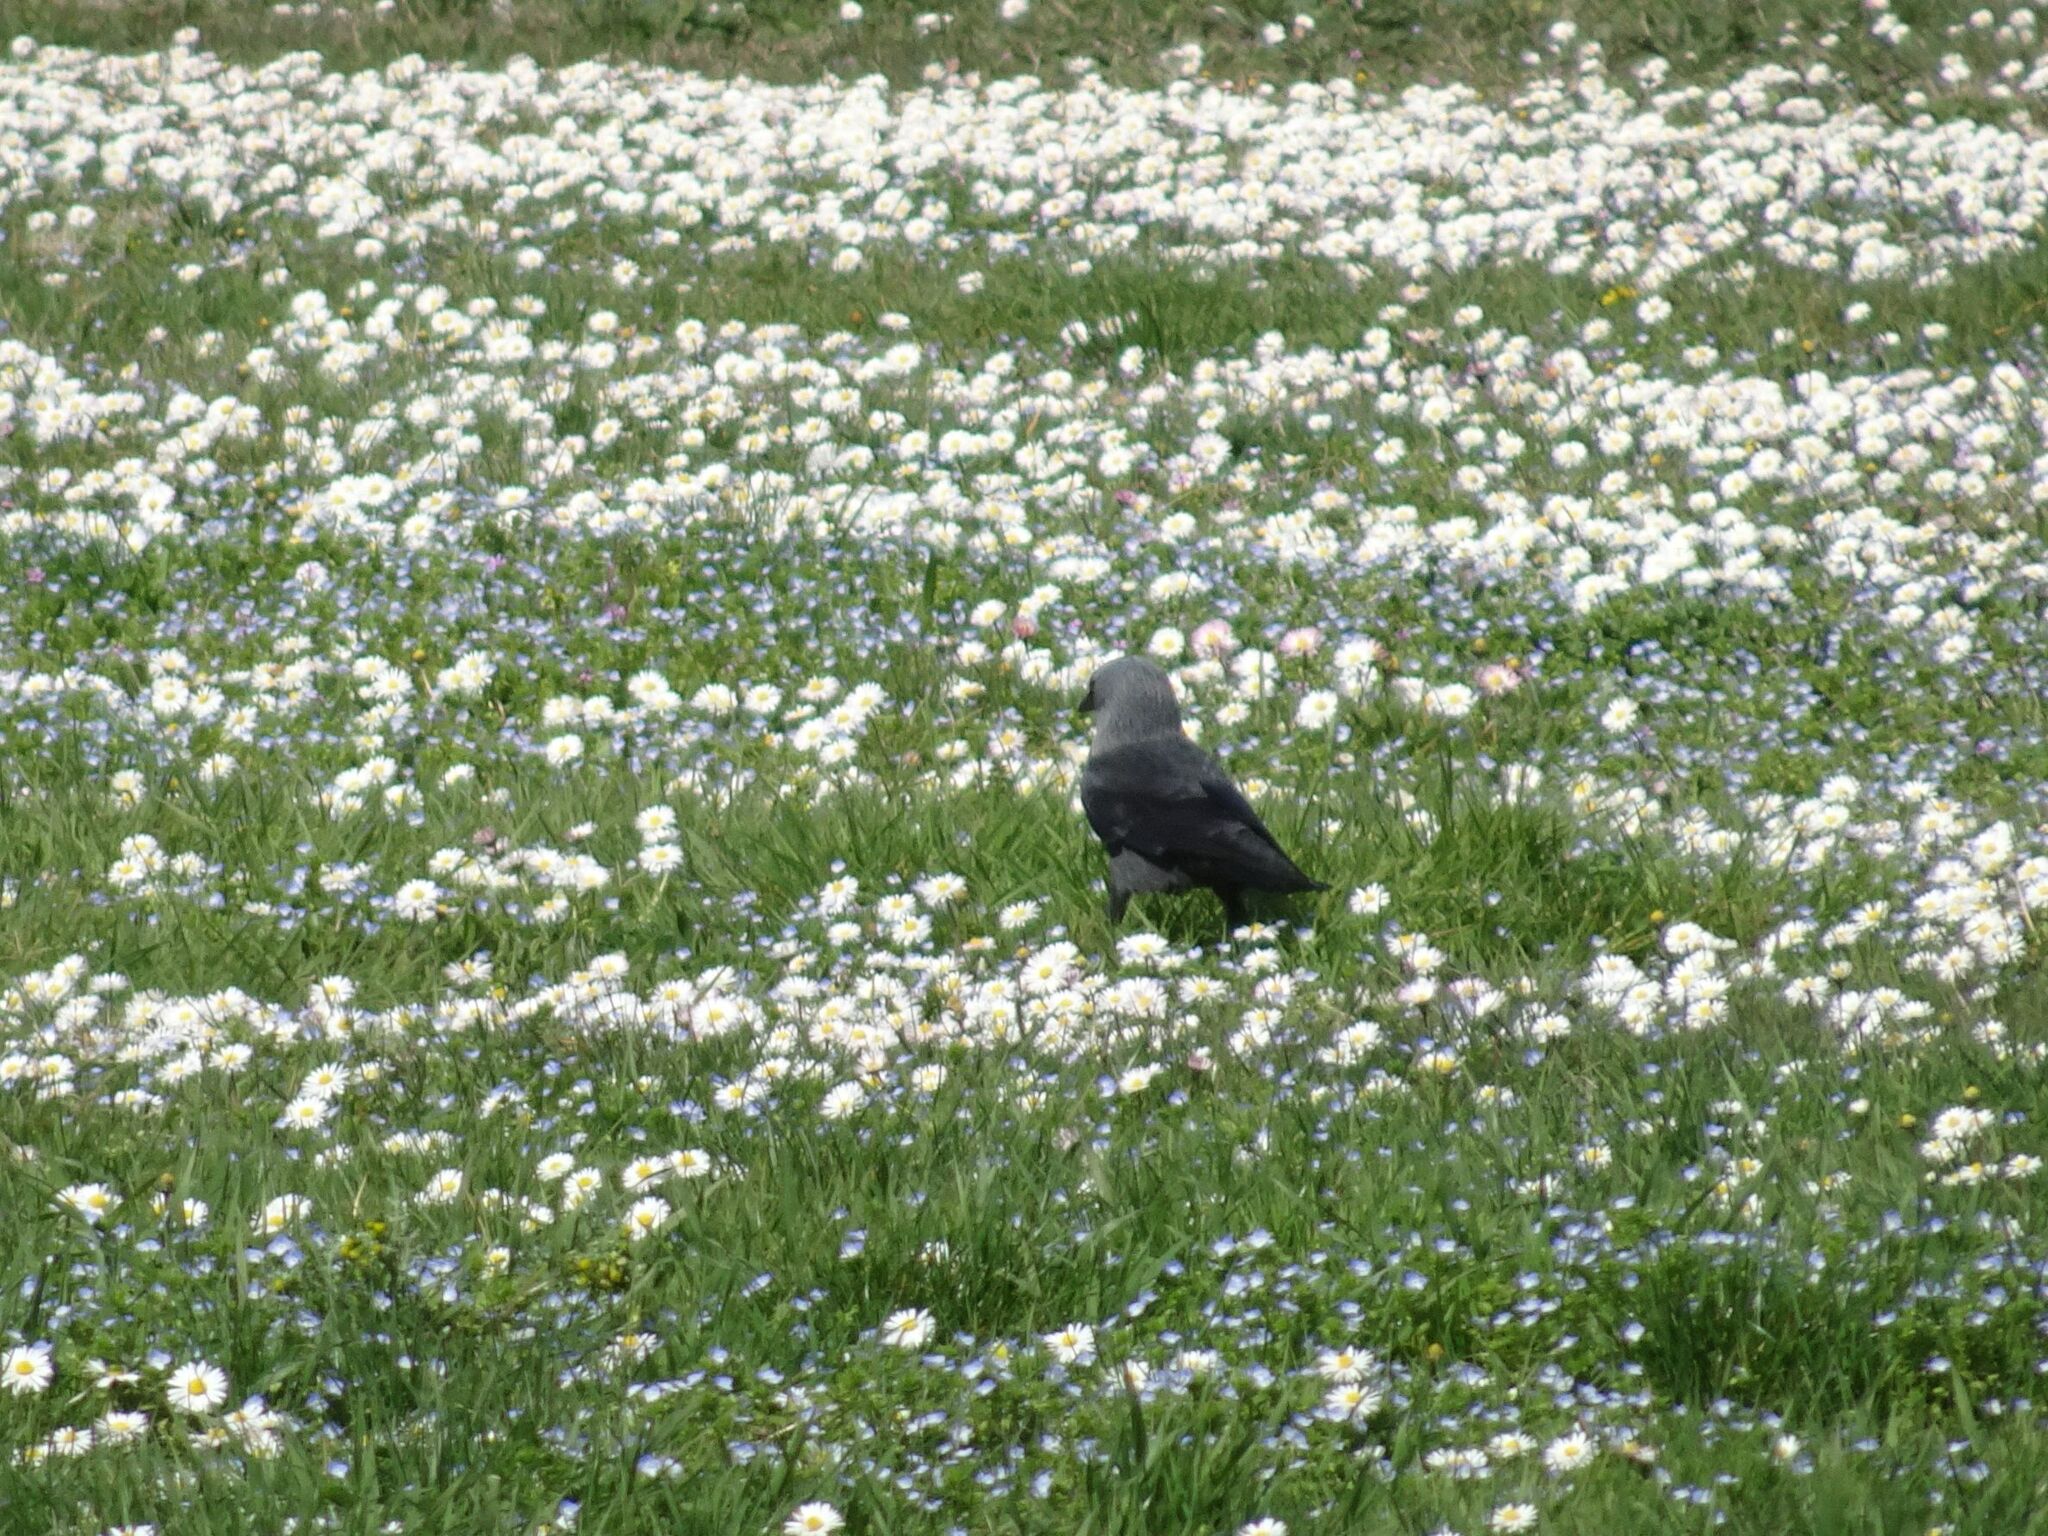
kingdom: Animalia
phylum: Chordata
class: Aves
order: Passeriformes
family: Corvidae
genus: Coloeus
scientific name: Coloeus monedula
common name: Western jackdaw
